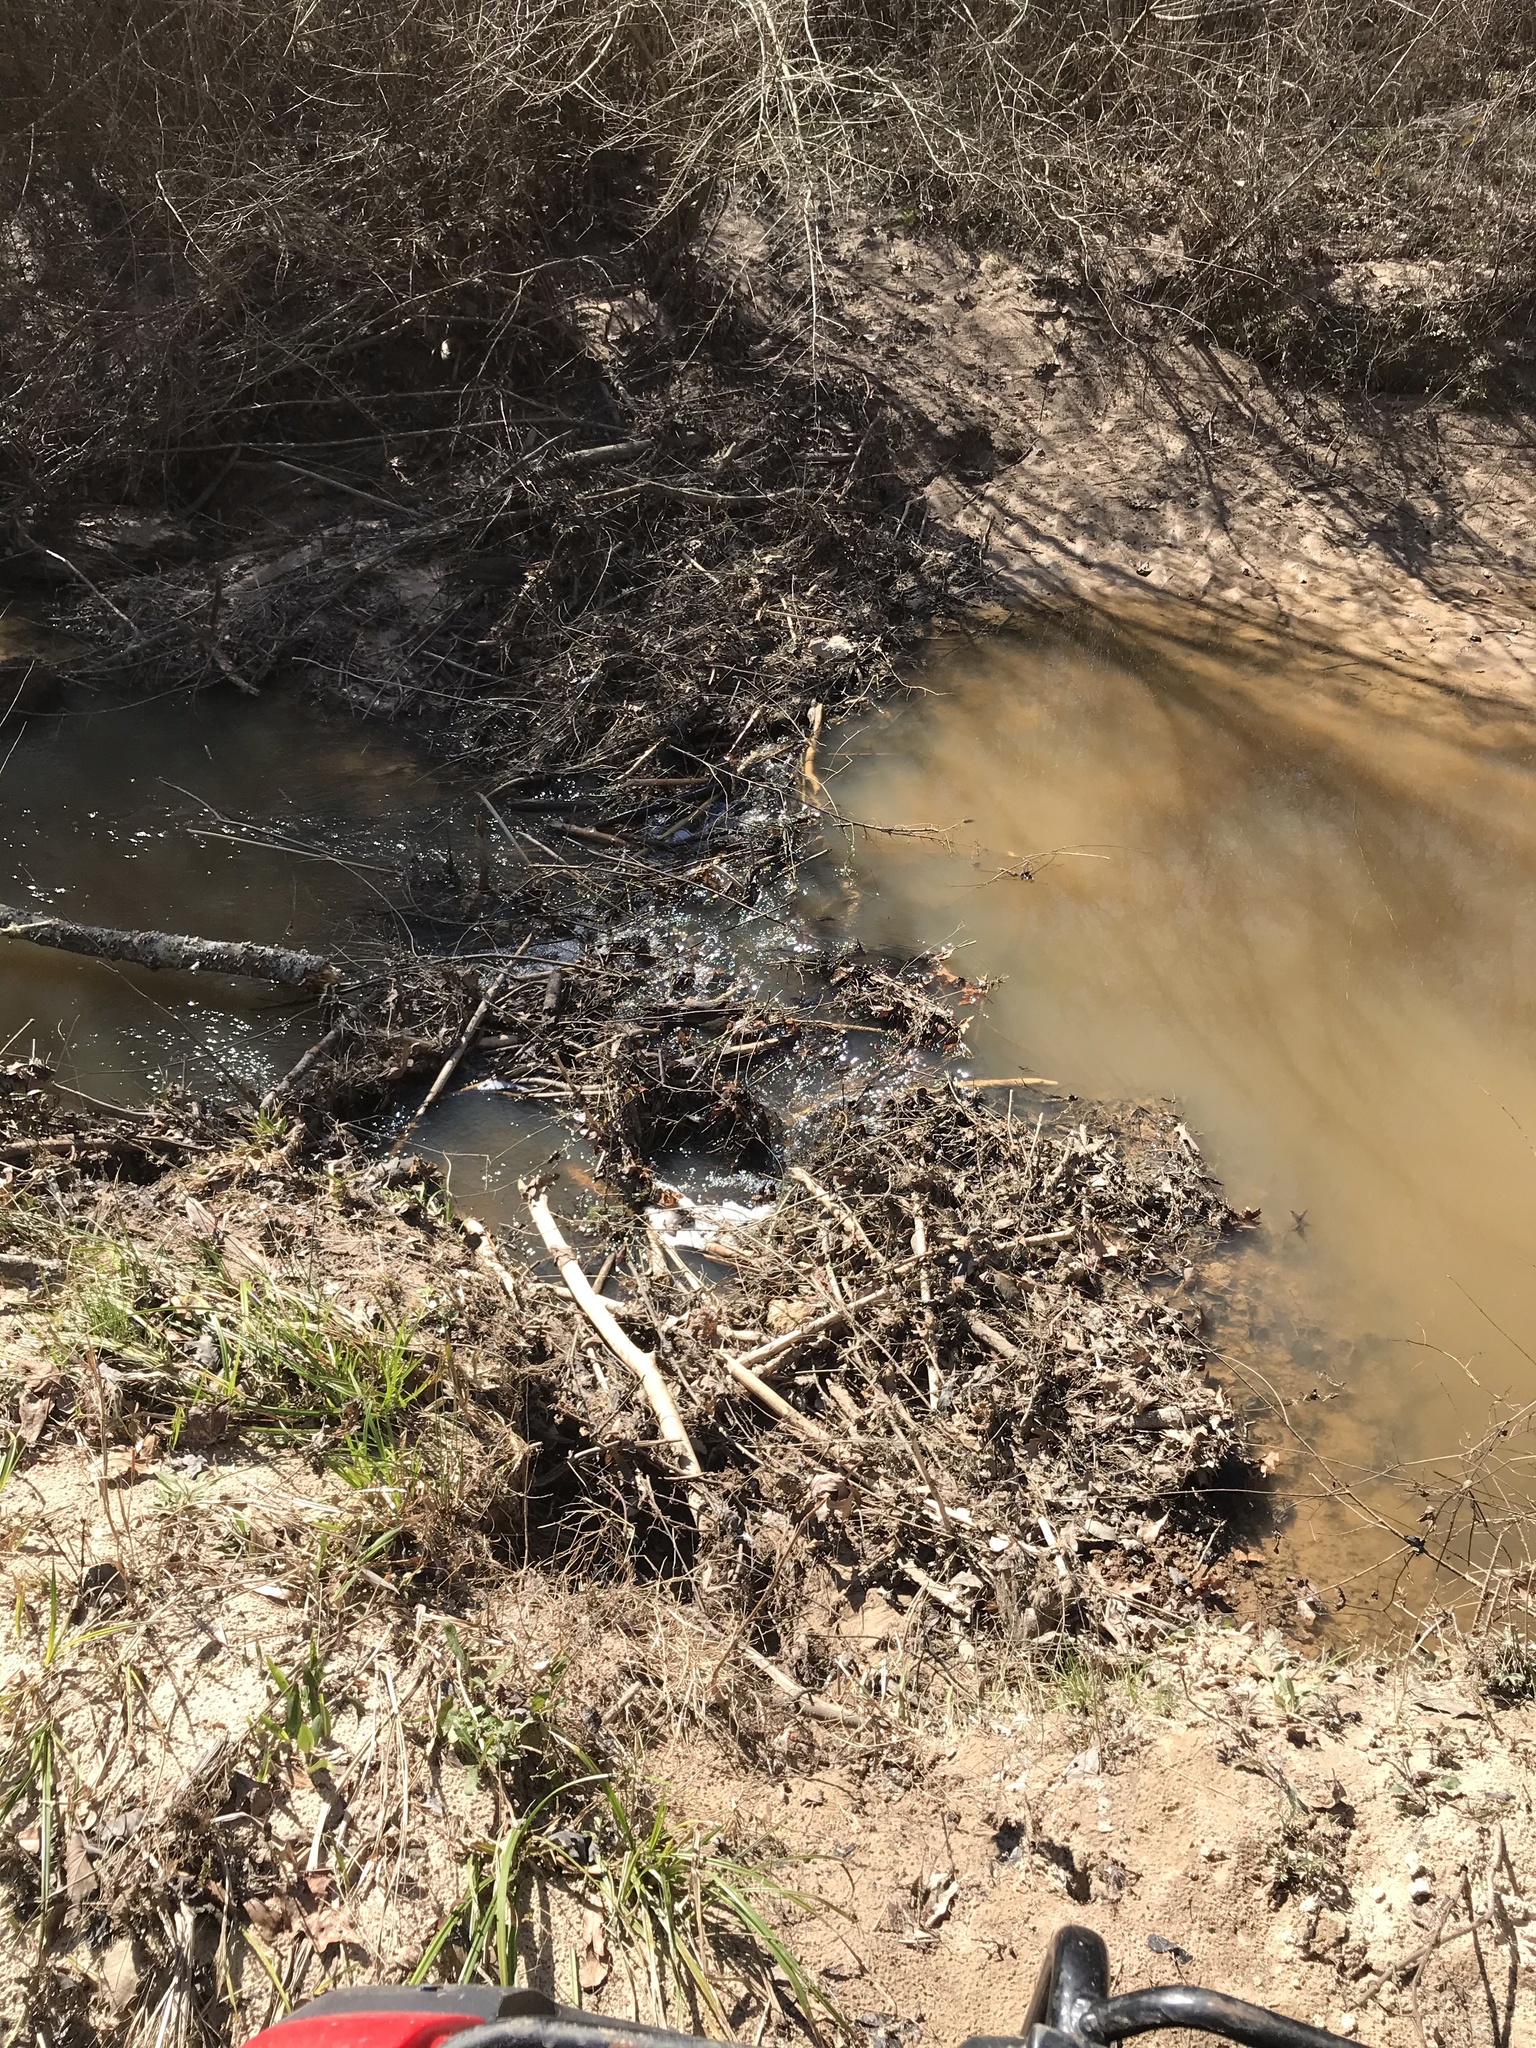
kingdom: Animalia
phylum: Chordata
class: Mammalia
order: Rodentia
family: Castoridae
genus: Castor
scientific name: Castor canadensis
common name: American beaver
